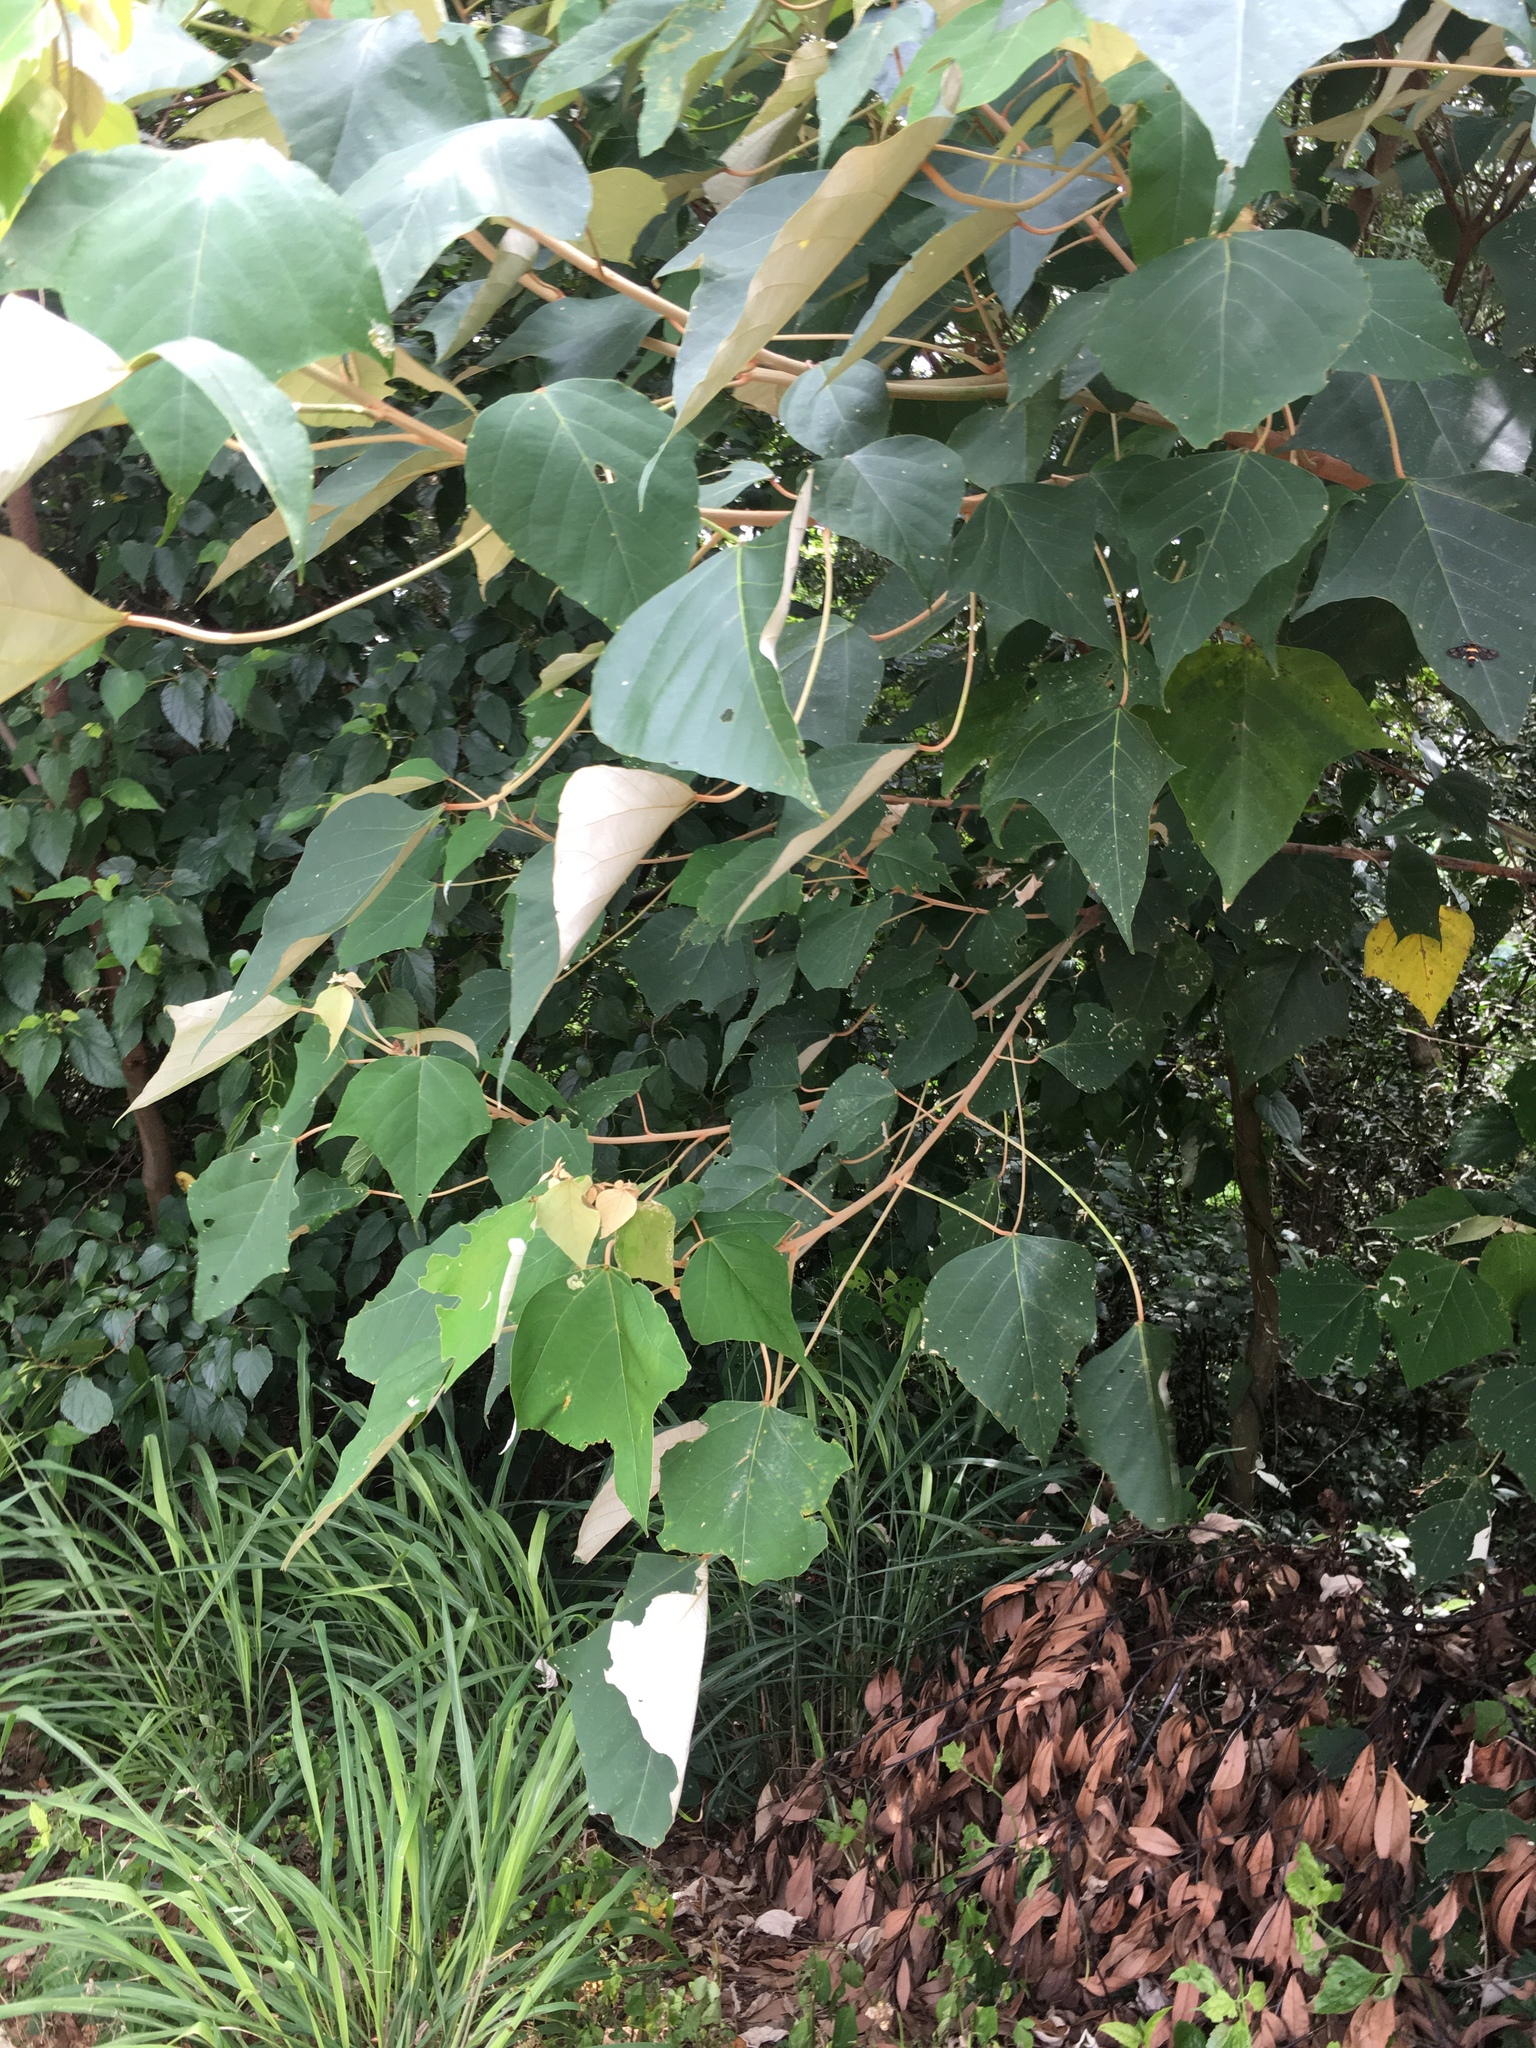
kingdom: Plantae
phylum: Tracheophyta
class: Magnoliopsida
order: Malpighiales
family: Euphorbiaceae
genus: Mallotus
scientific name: Mallotus paniculatus
